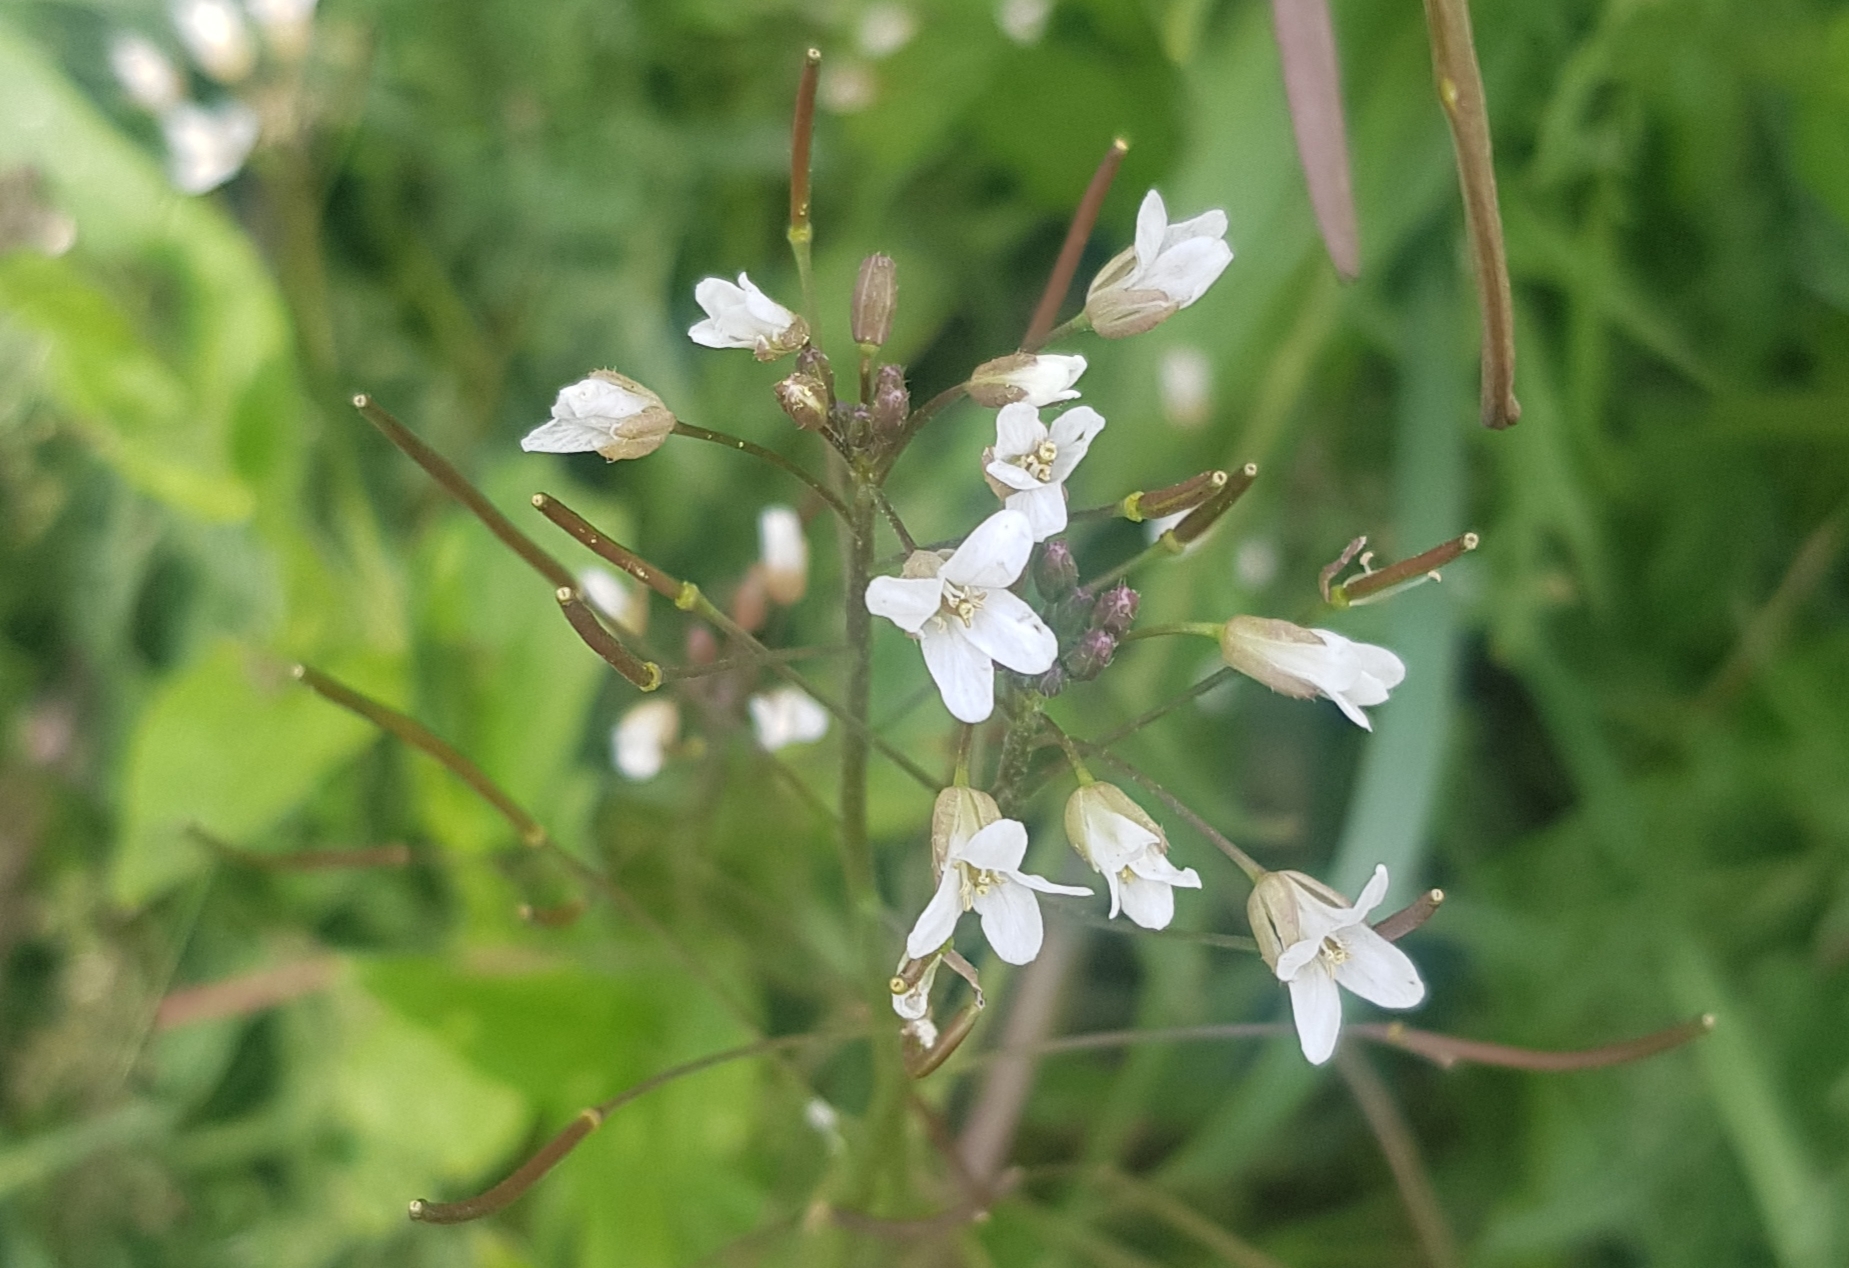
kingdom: Plantae
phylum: Tracheophyta
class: Magnoliopsida
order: Brassicales
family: Brassicaceae
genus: Catolobus
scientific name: Catolobus pendulus
